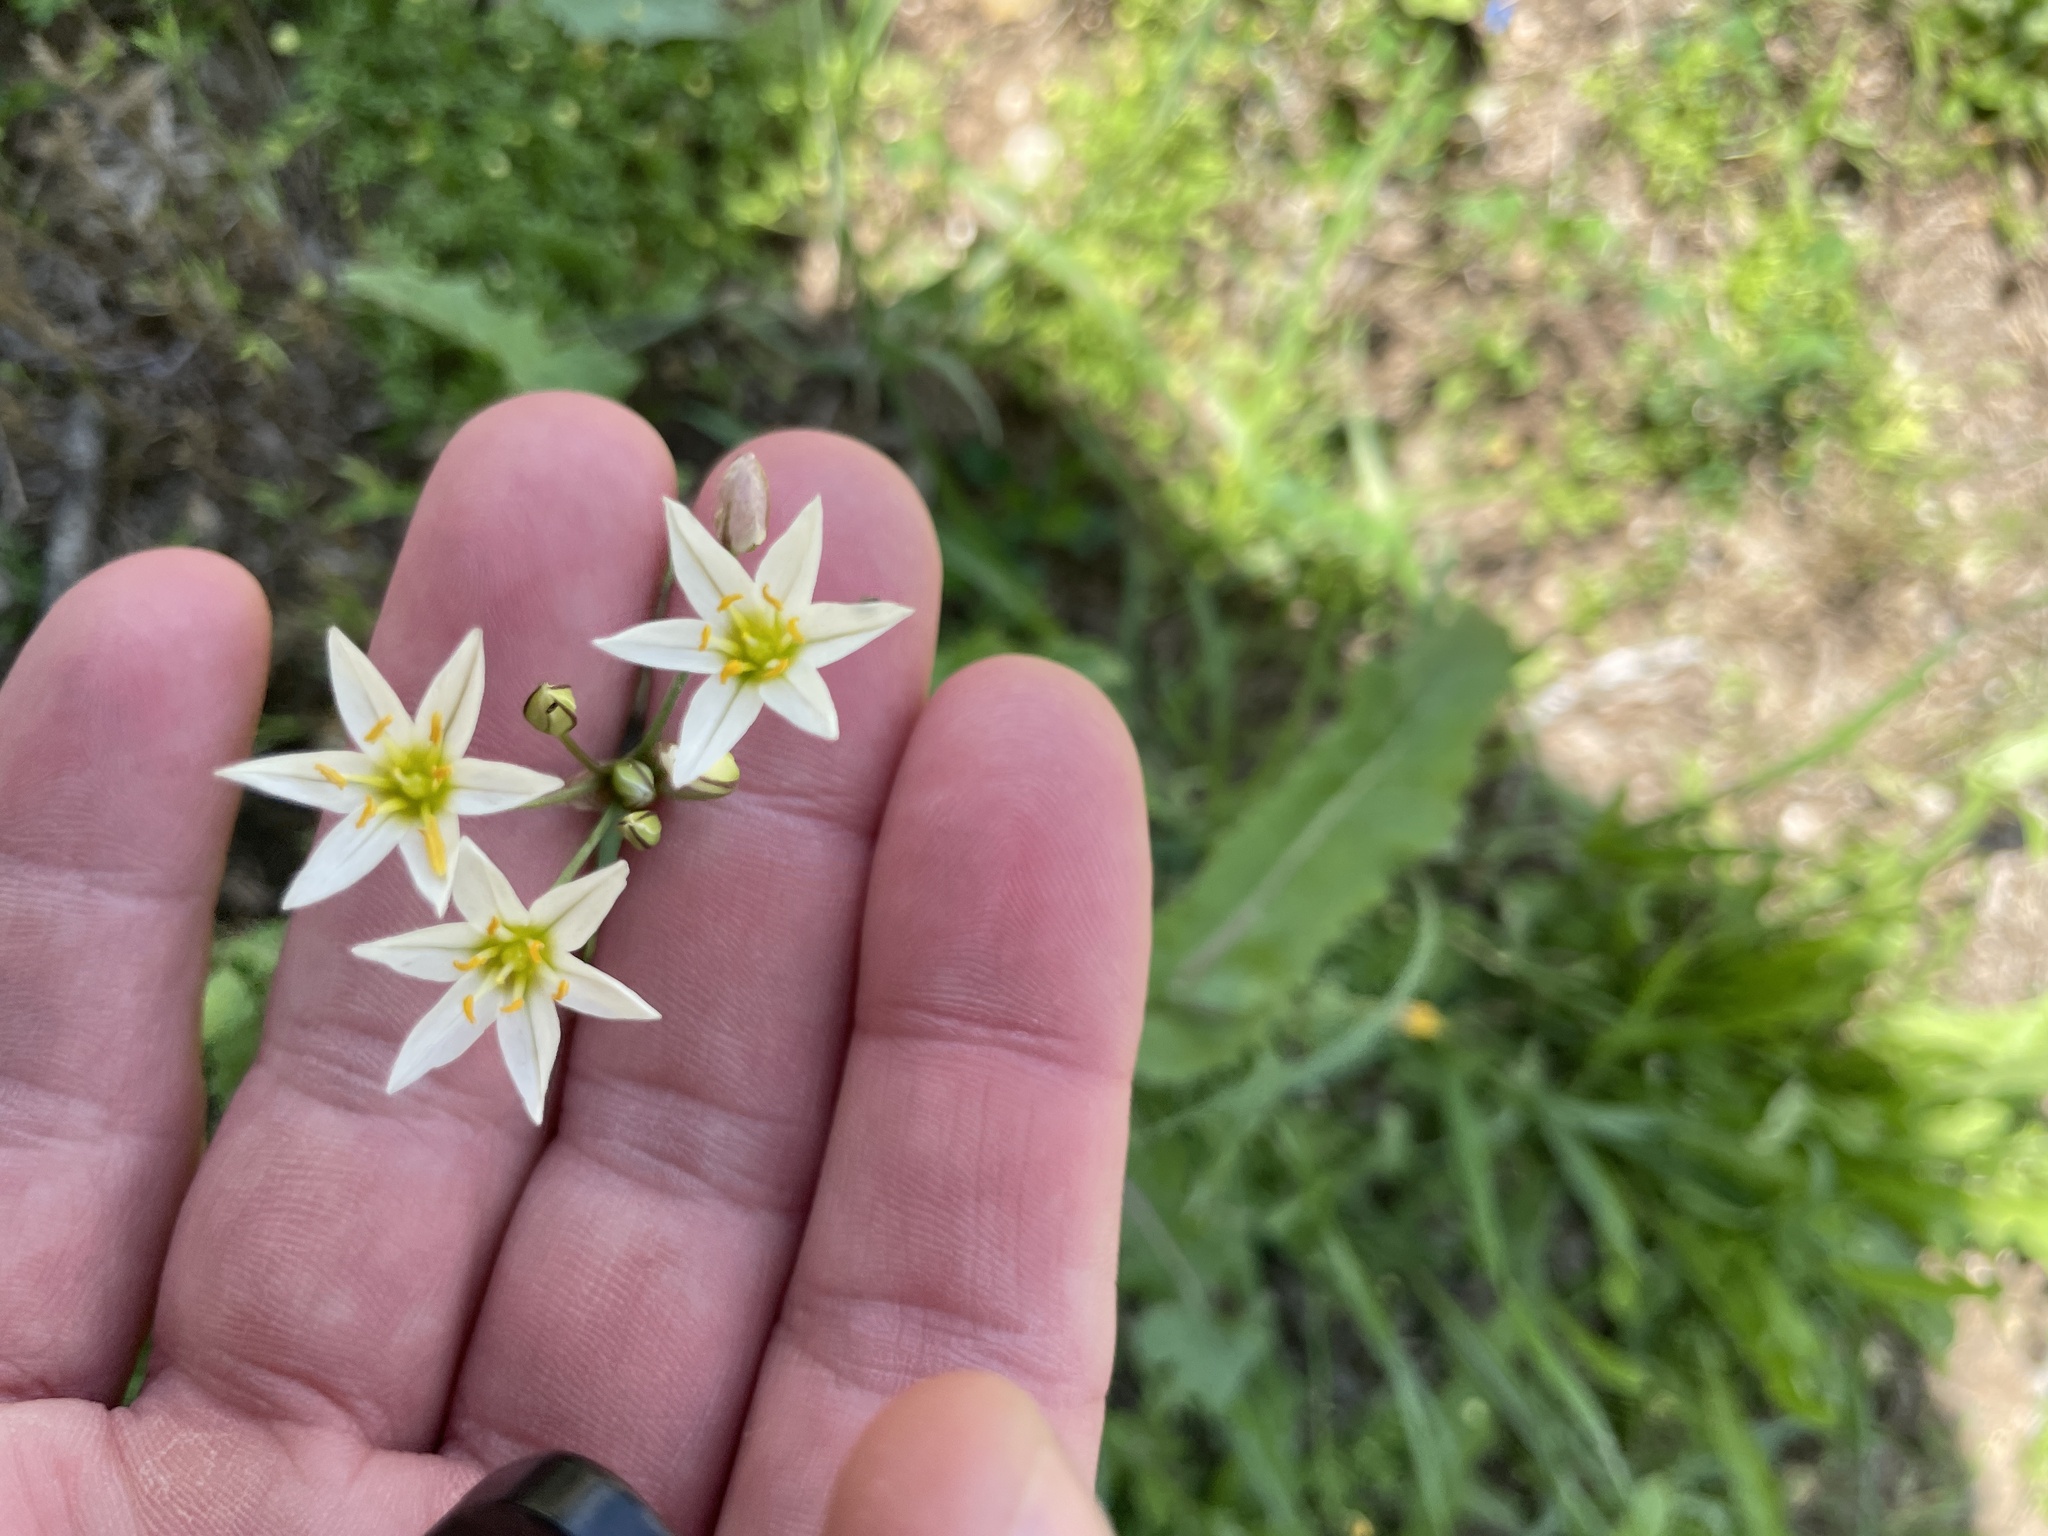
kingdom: Plantae
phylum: Tracheophyta
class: Liliopsida
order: Asparagales
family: Amaryllidaceae
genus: Nothoscordum
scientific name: Nothoscordum bivalve
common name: Crow-poison
